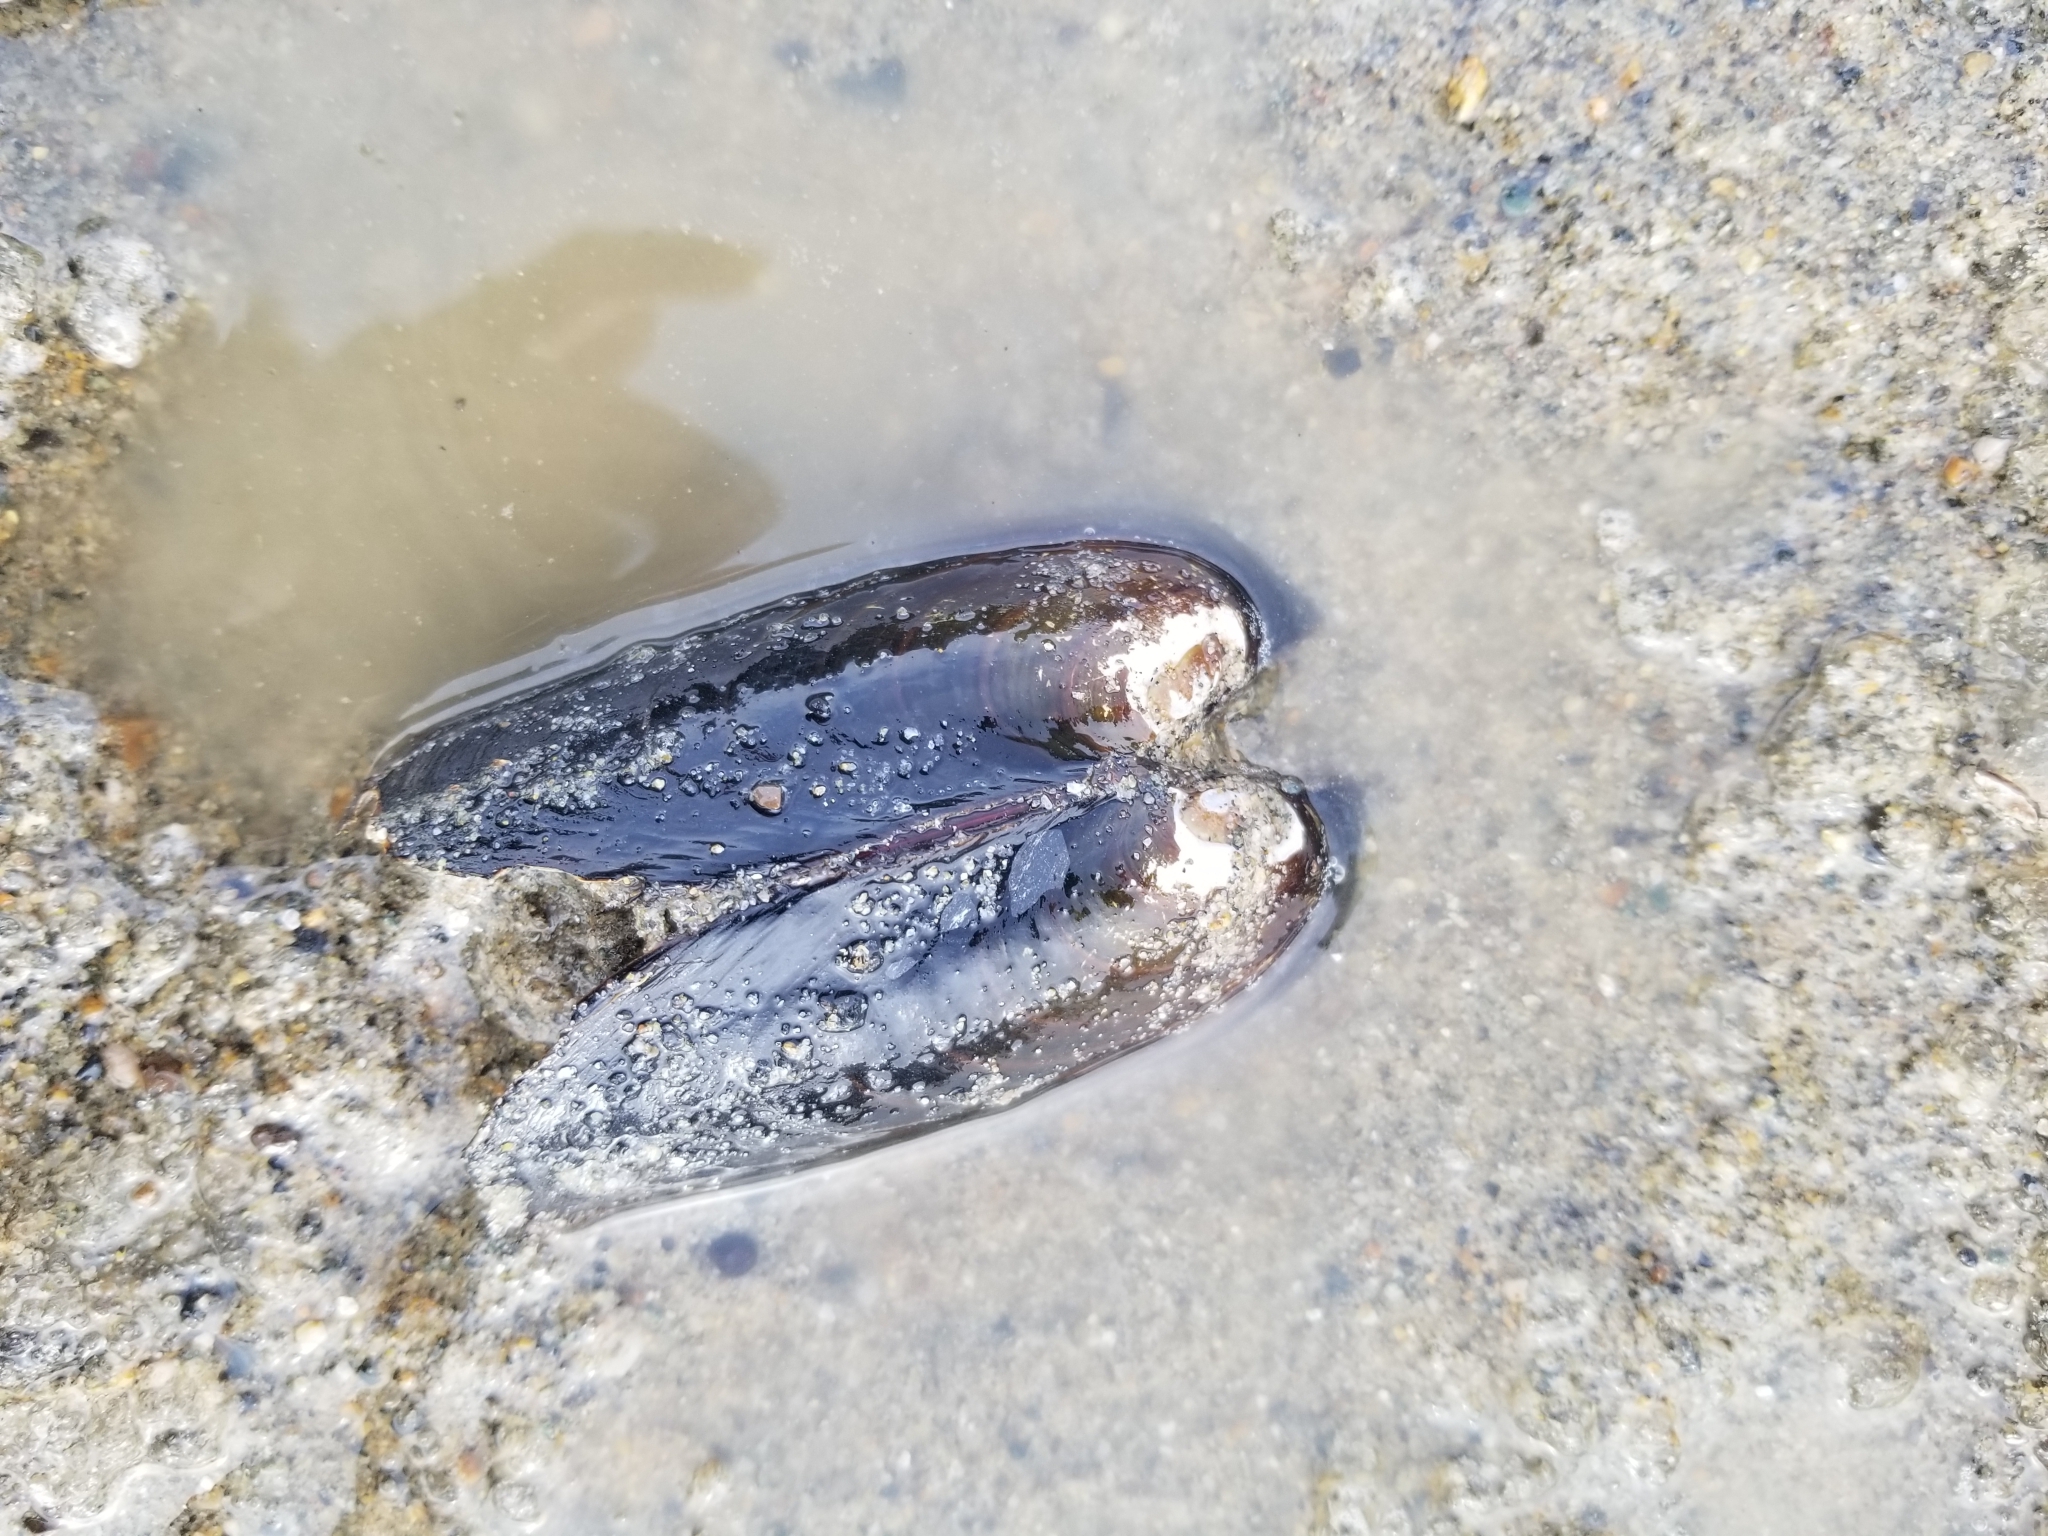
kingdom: Animalia
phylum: Mollusca
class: Bivalvia
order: Unionida
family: Margaritiferidae
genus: Margaritifera
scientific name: Margaritifera falcata
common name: Western pearlshell
